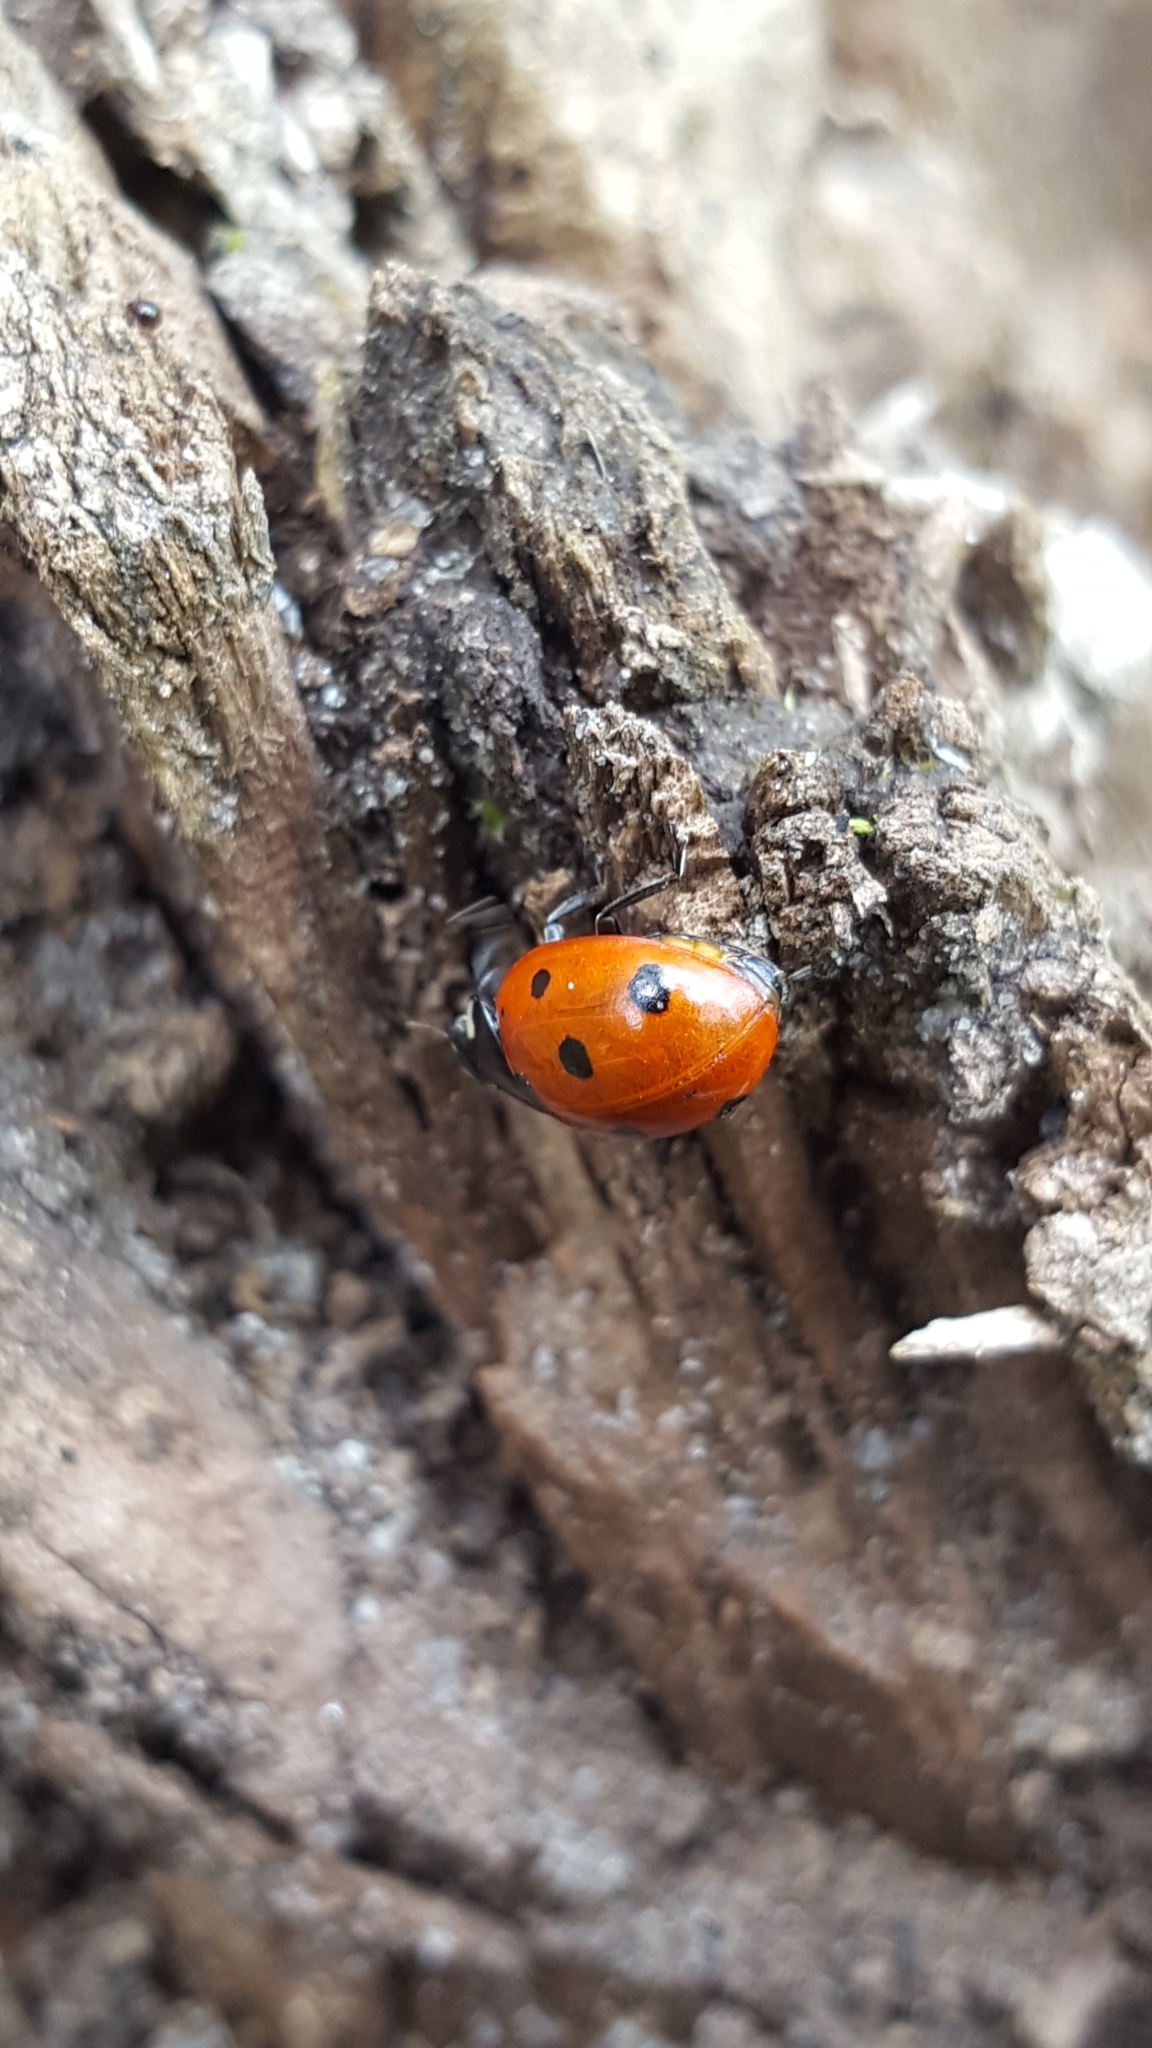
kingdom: Animalia
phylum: Arthropoda
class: Insecta
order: Coleoptera
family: Coccinellidae
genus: Coccinella
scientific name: Coccinella septempunctata
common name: Sevenspotted lady beetle
